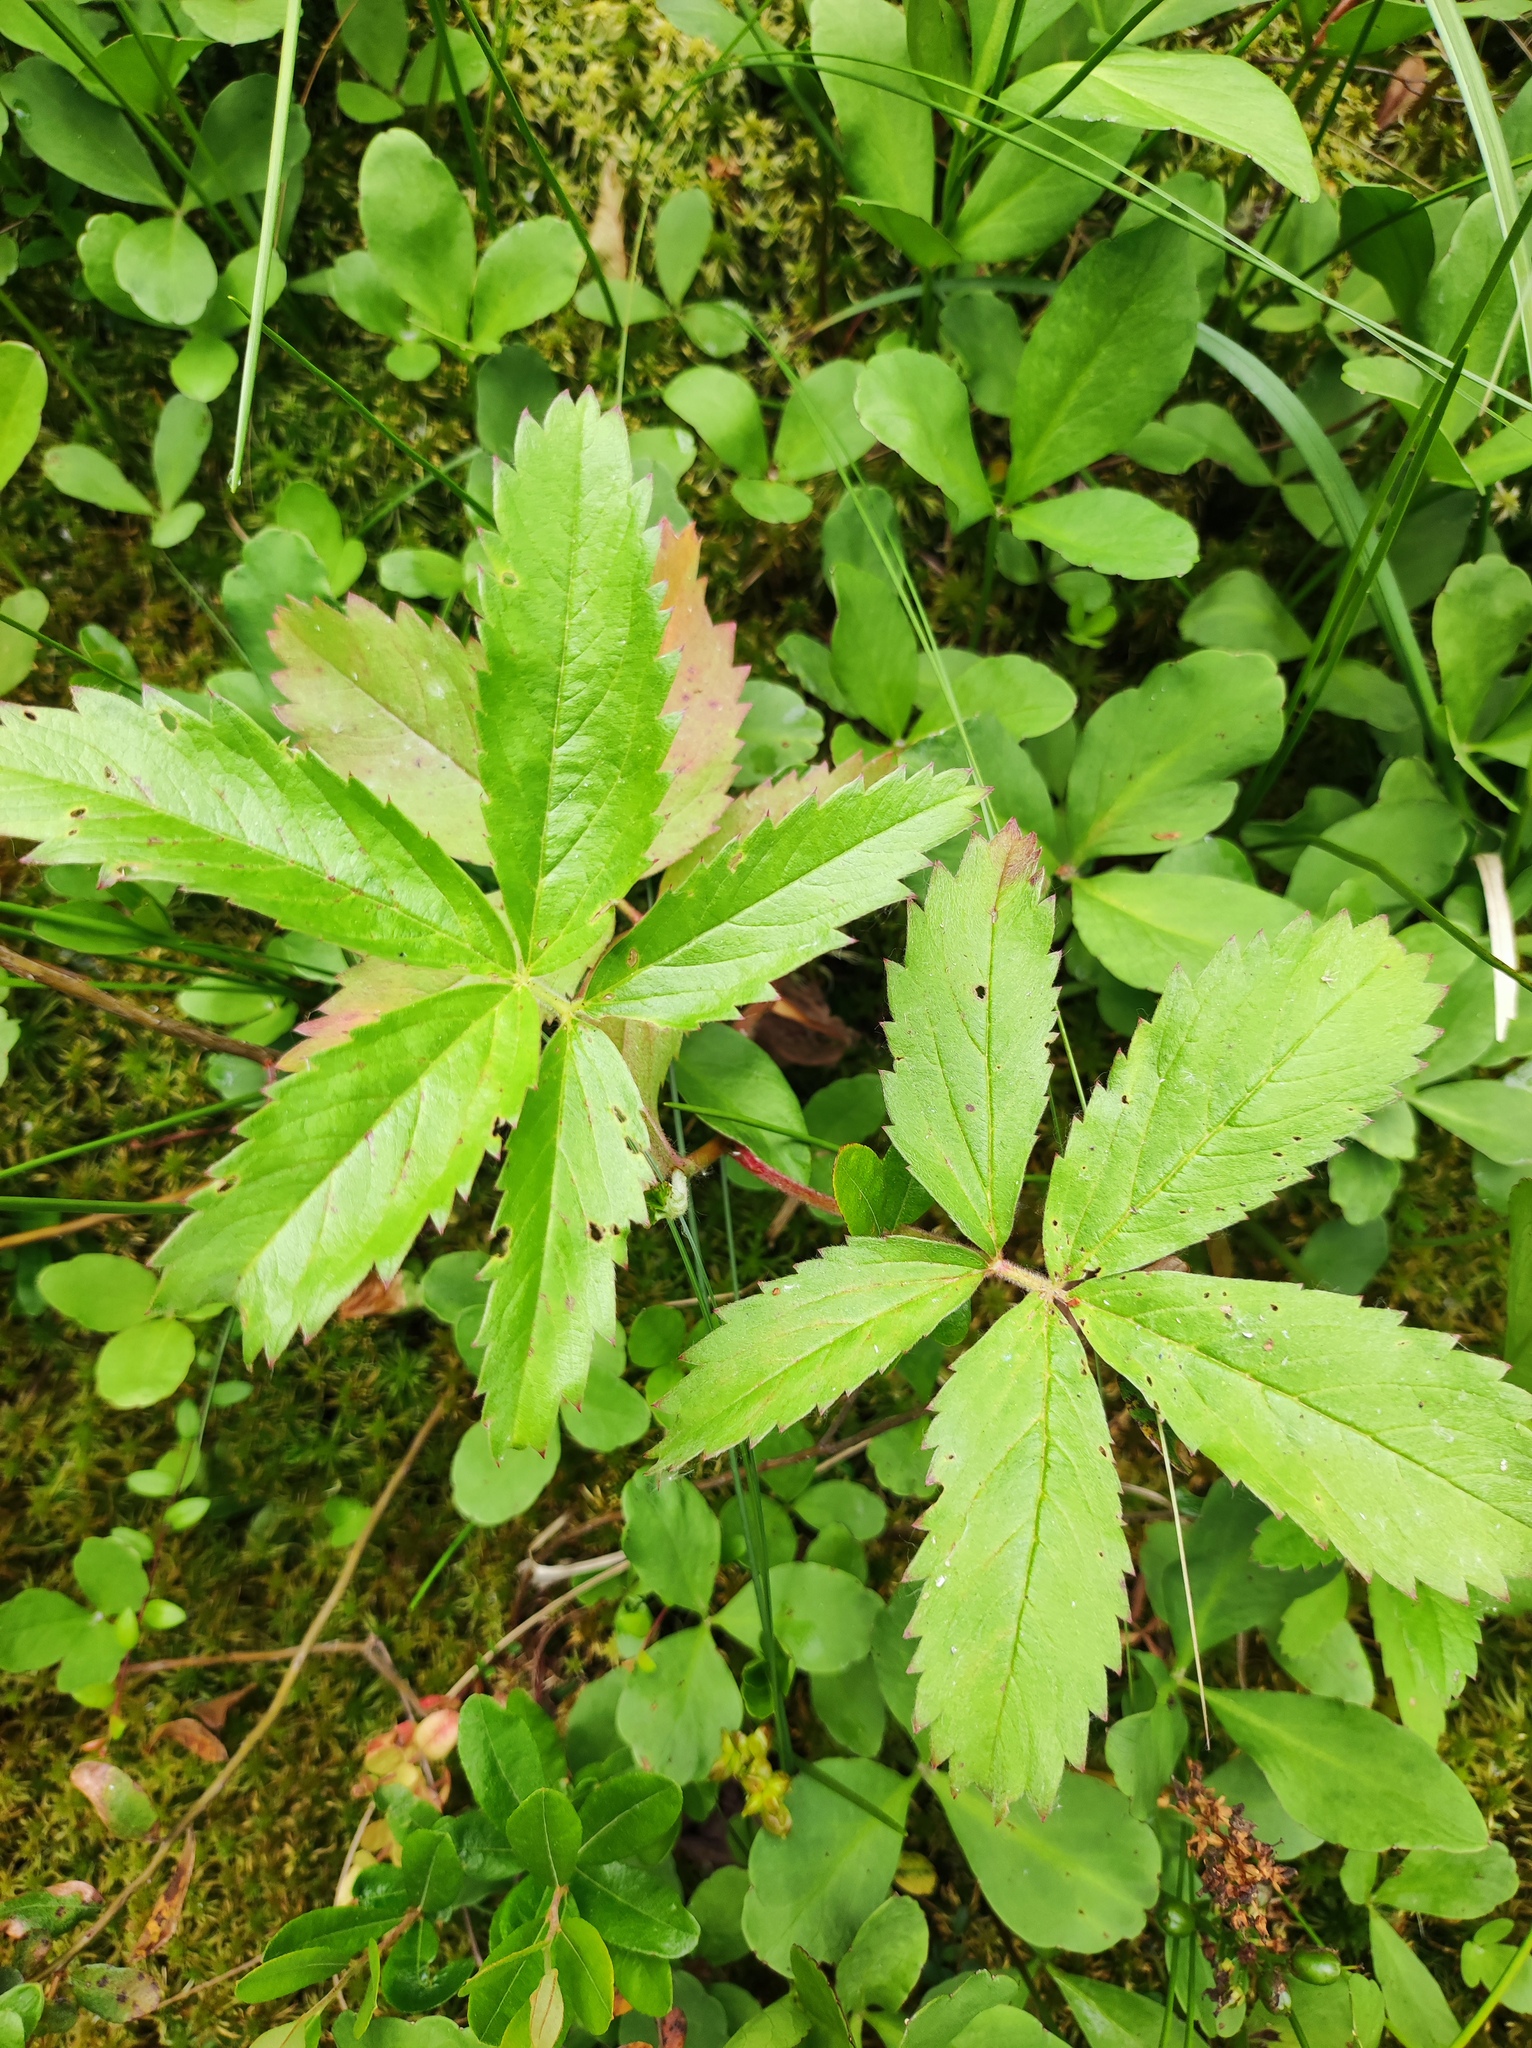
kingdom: Plantae
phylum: Tracheophyta
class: Magnoliopsida
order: Rosales
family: Rosaceae
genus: Comarum
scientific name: Comarum palustre
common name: Marsh cinquefoil
